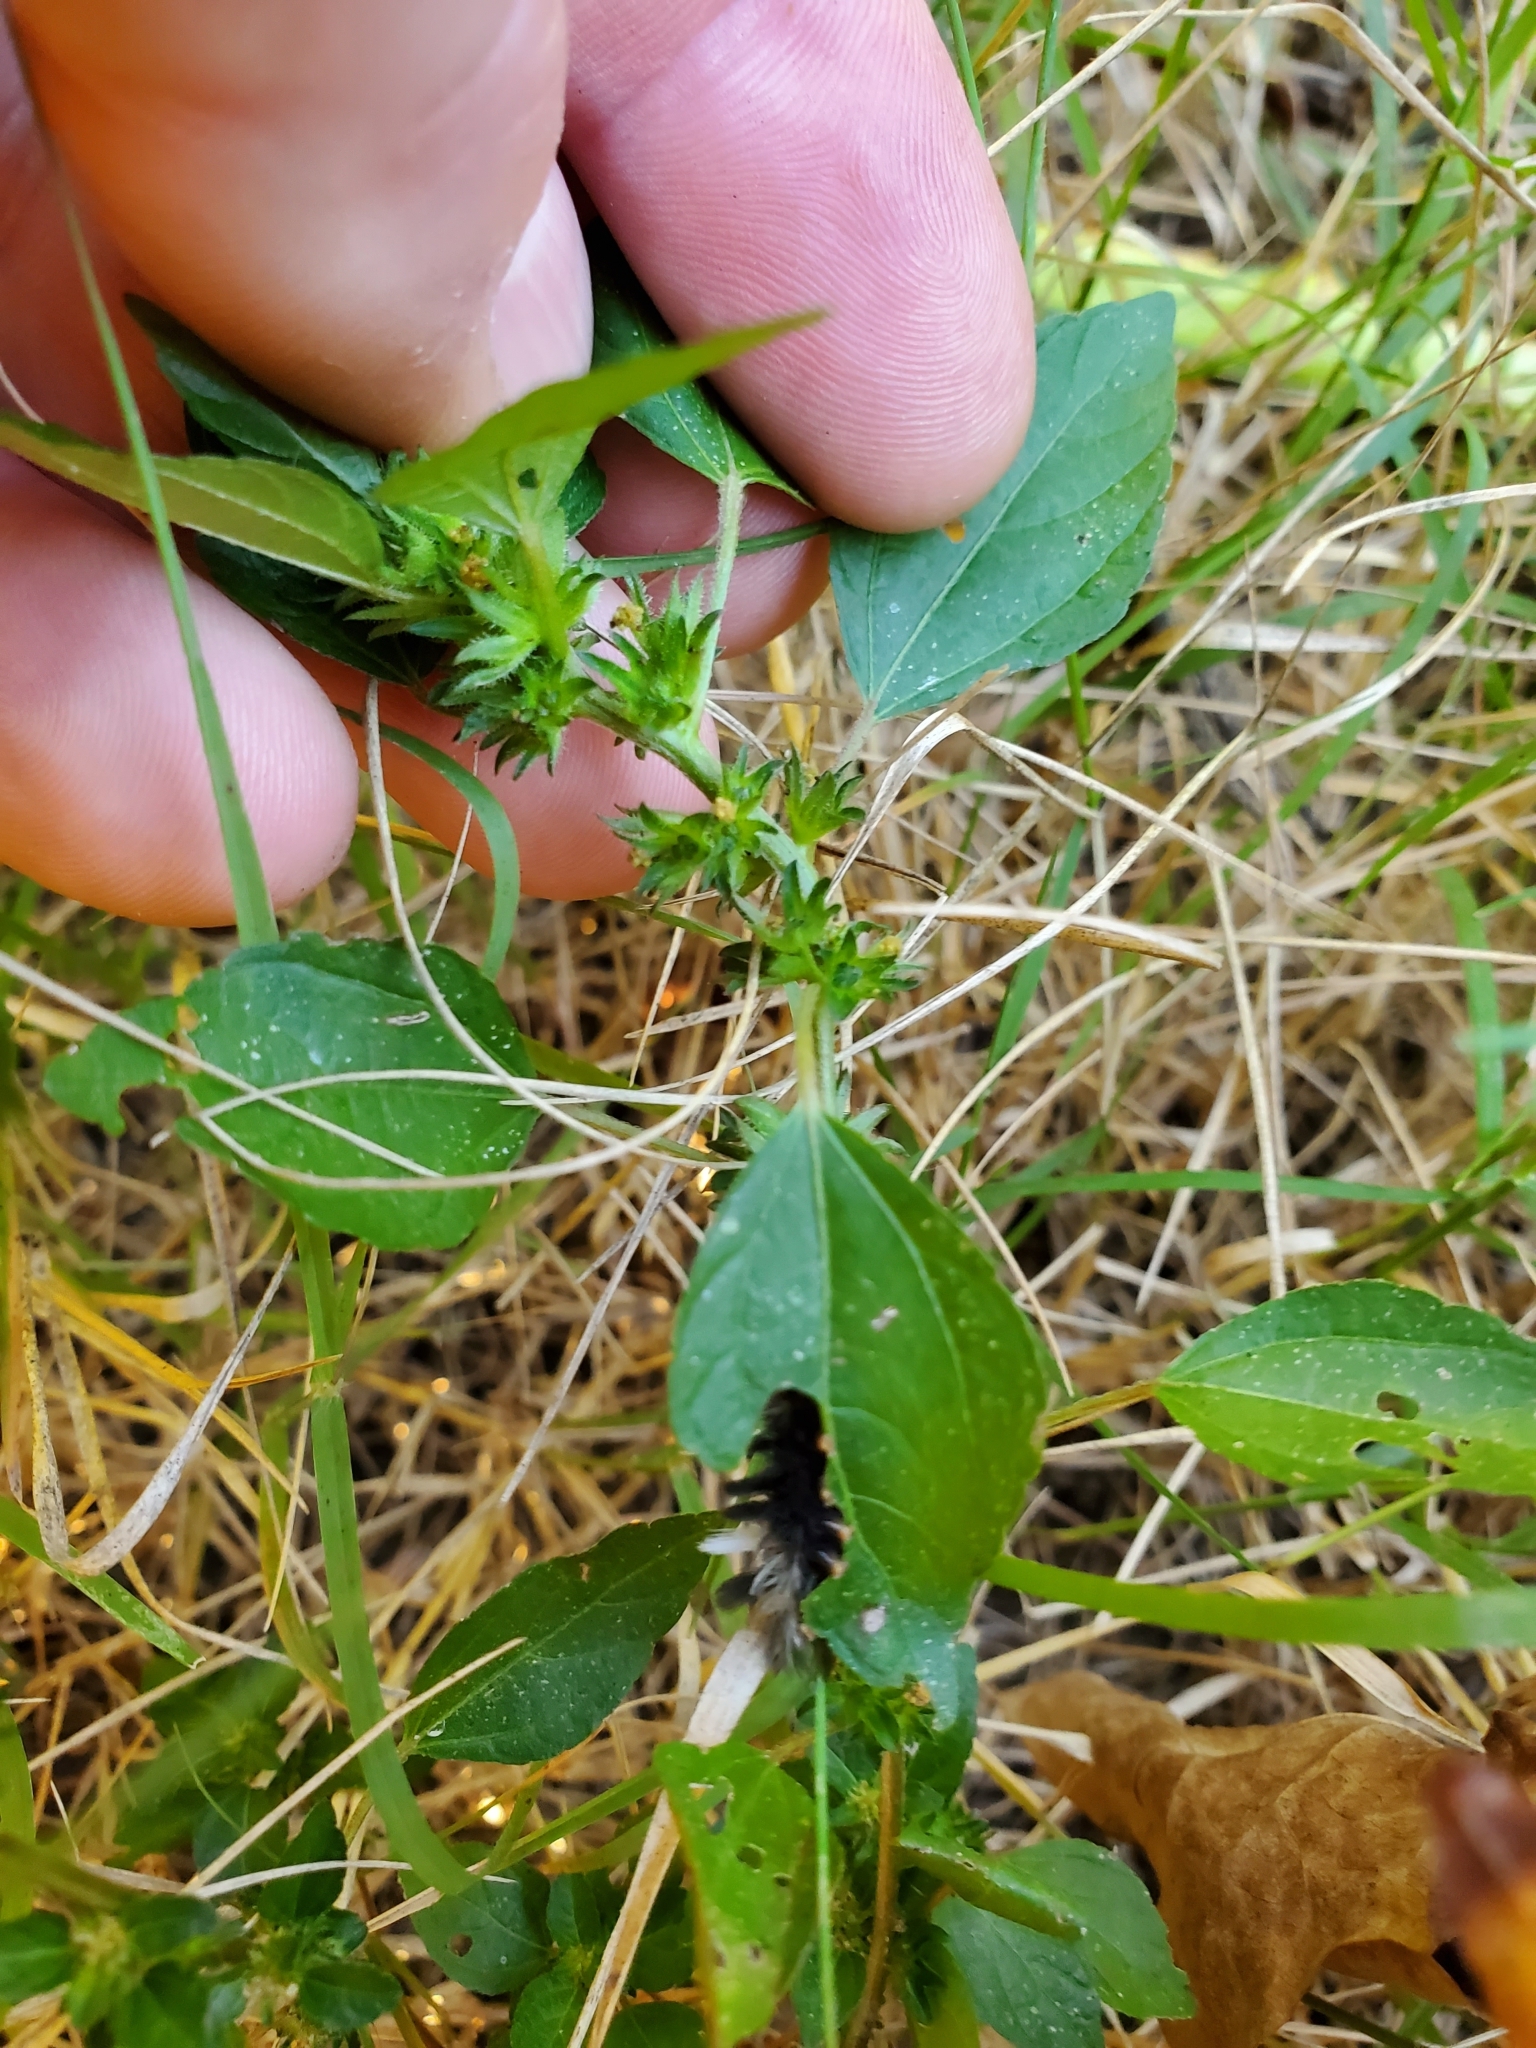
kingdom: Animalia
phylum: Arthropoda
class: Insecta
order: Lepidoptera
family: Erebidae
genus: Euchaetes
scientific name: Euchaetes egle
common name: Milkweed tussock moth
